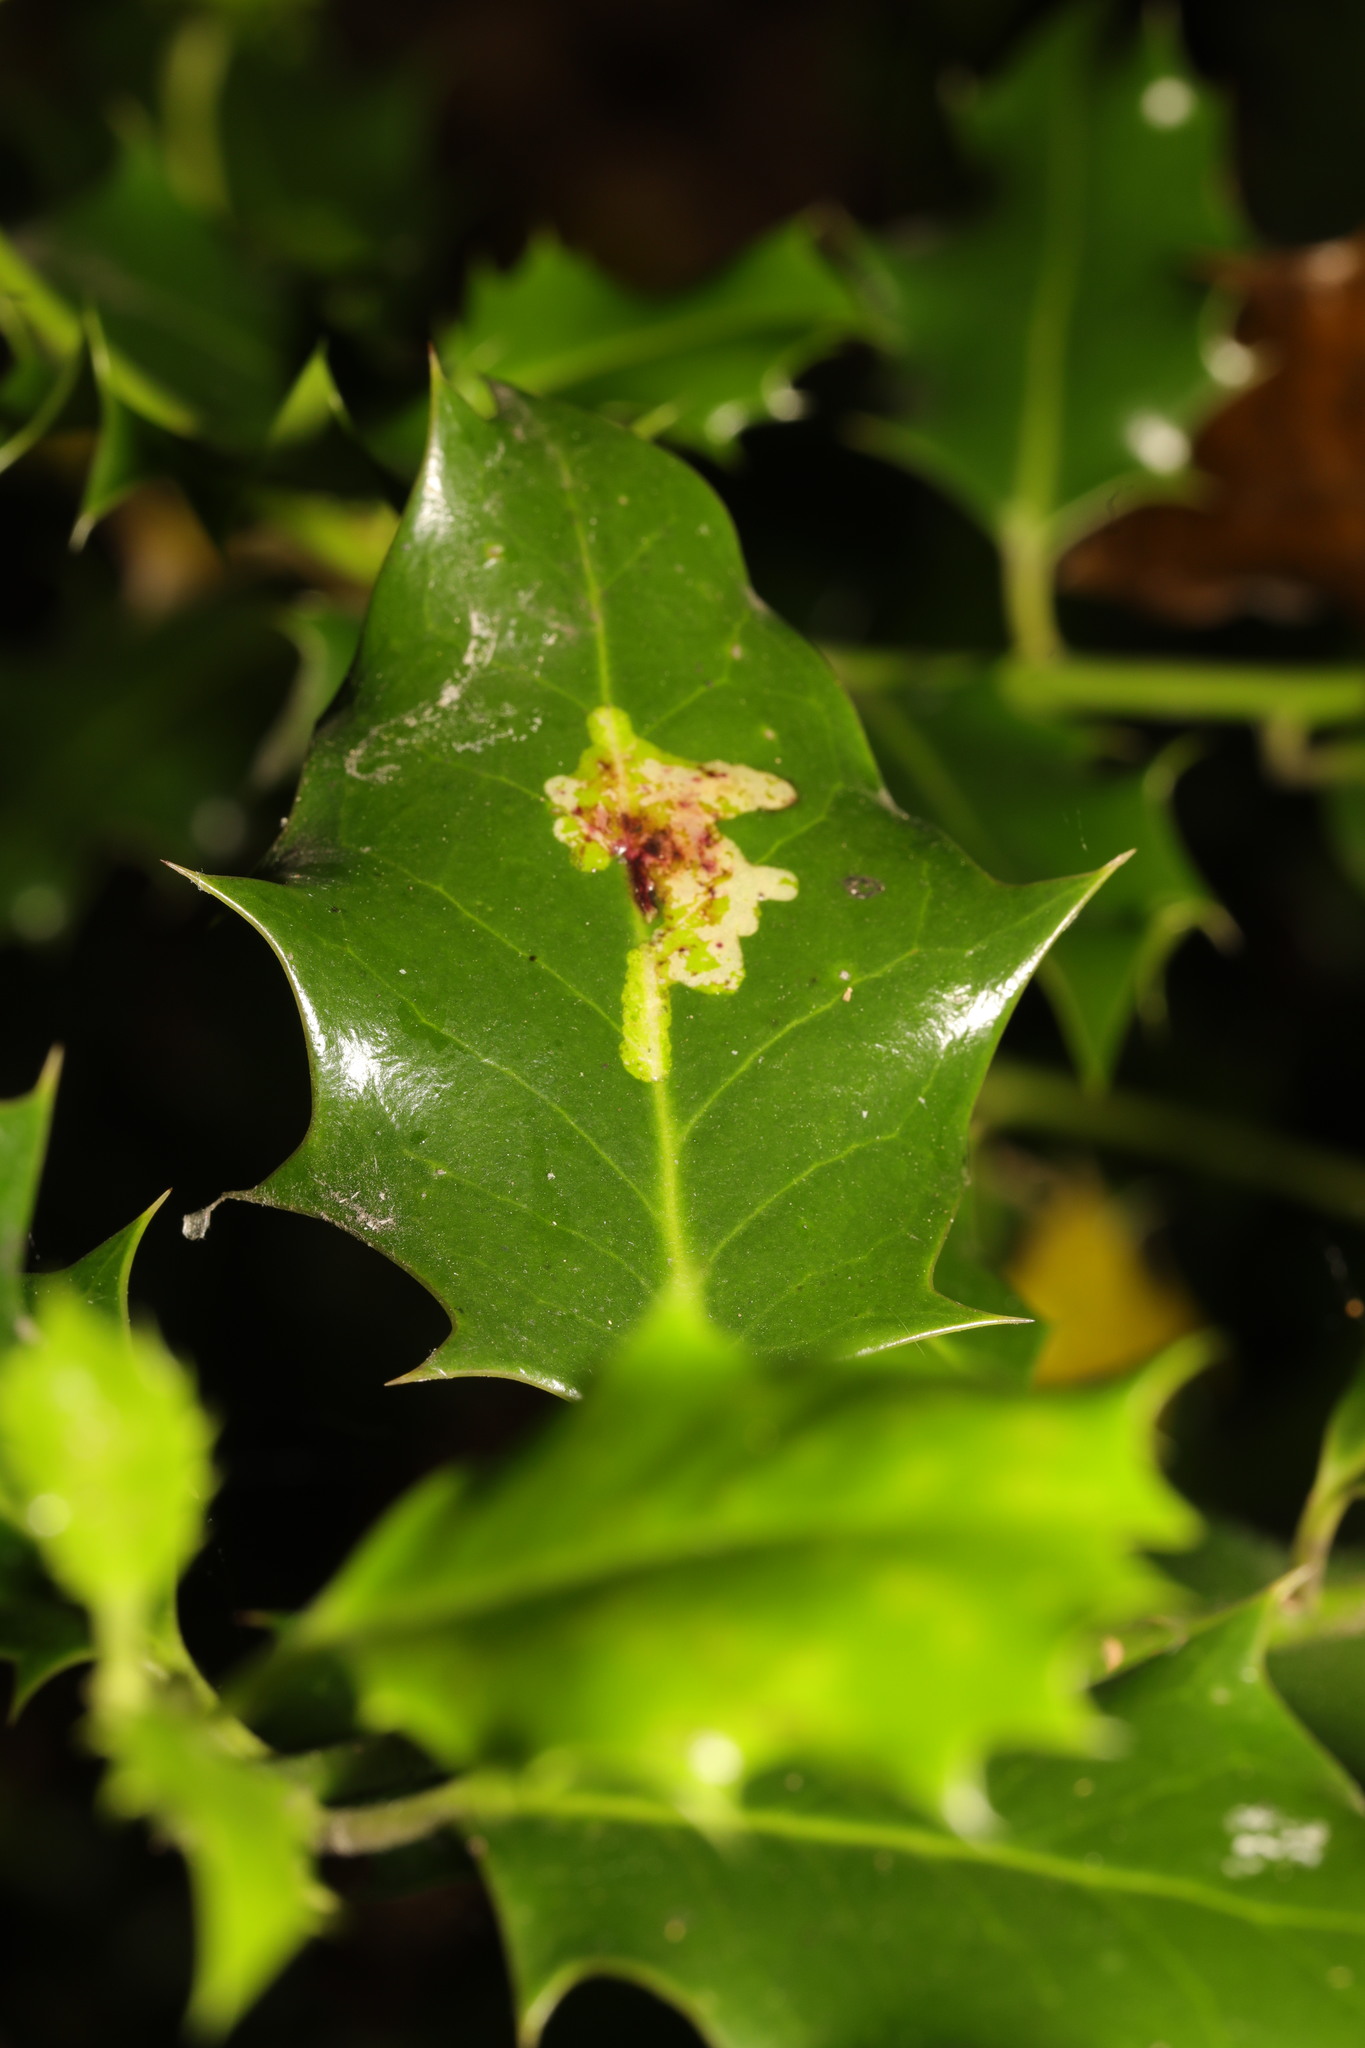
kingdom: Animalia
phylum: Arthropoda
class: Insecta
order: Diptera
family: Agromyzidae
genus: Phytomyza
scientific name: Phytomyza ilicis
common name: Holly leafminer
